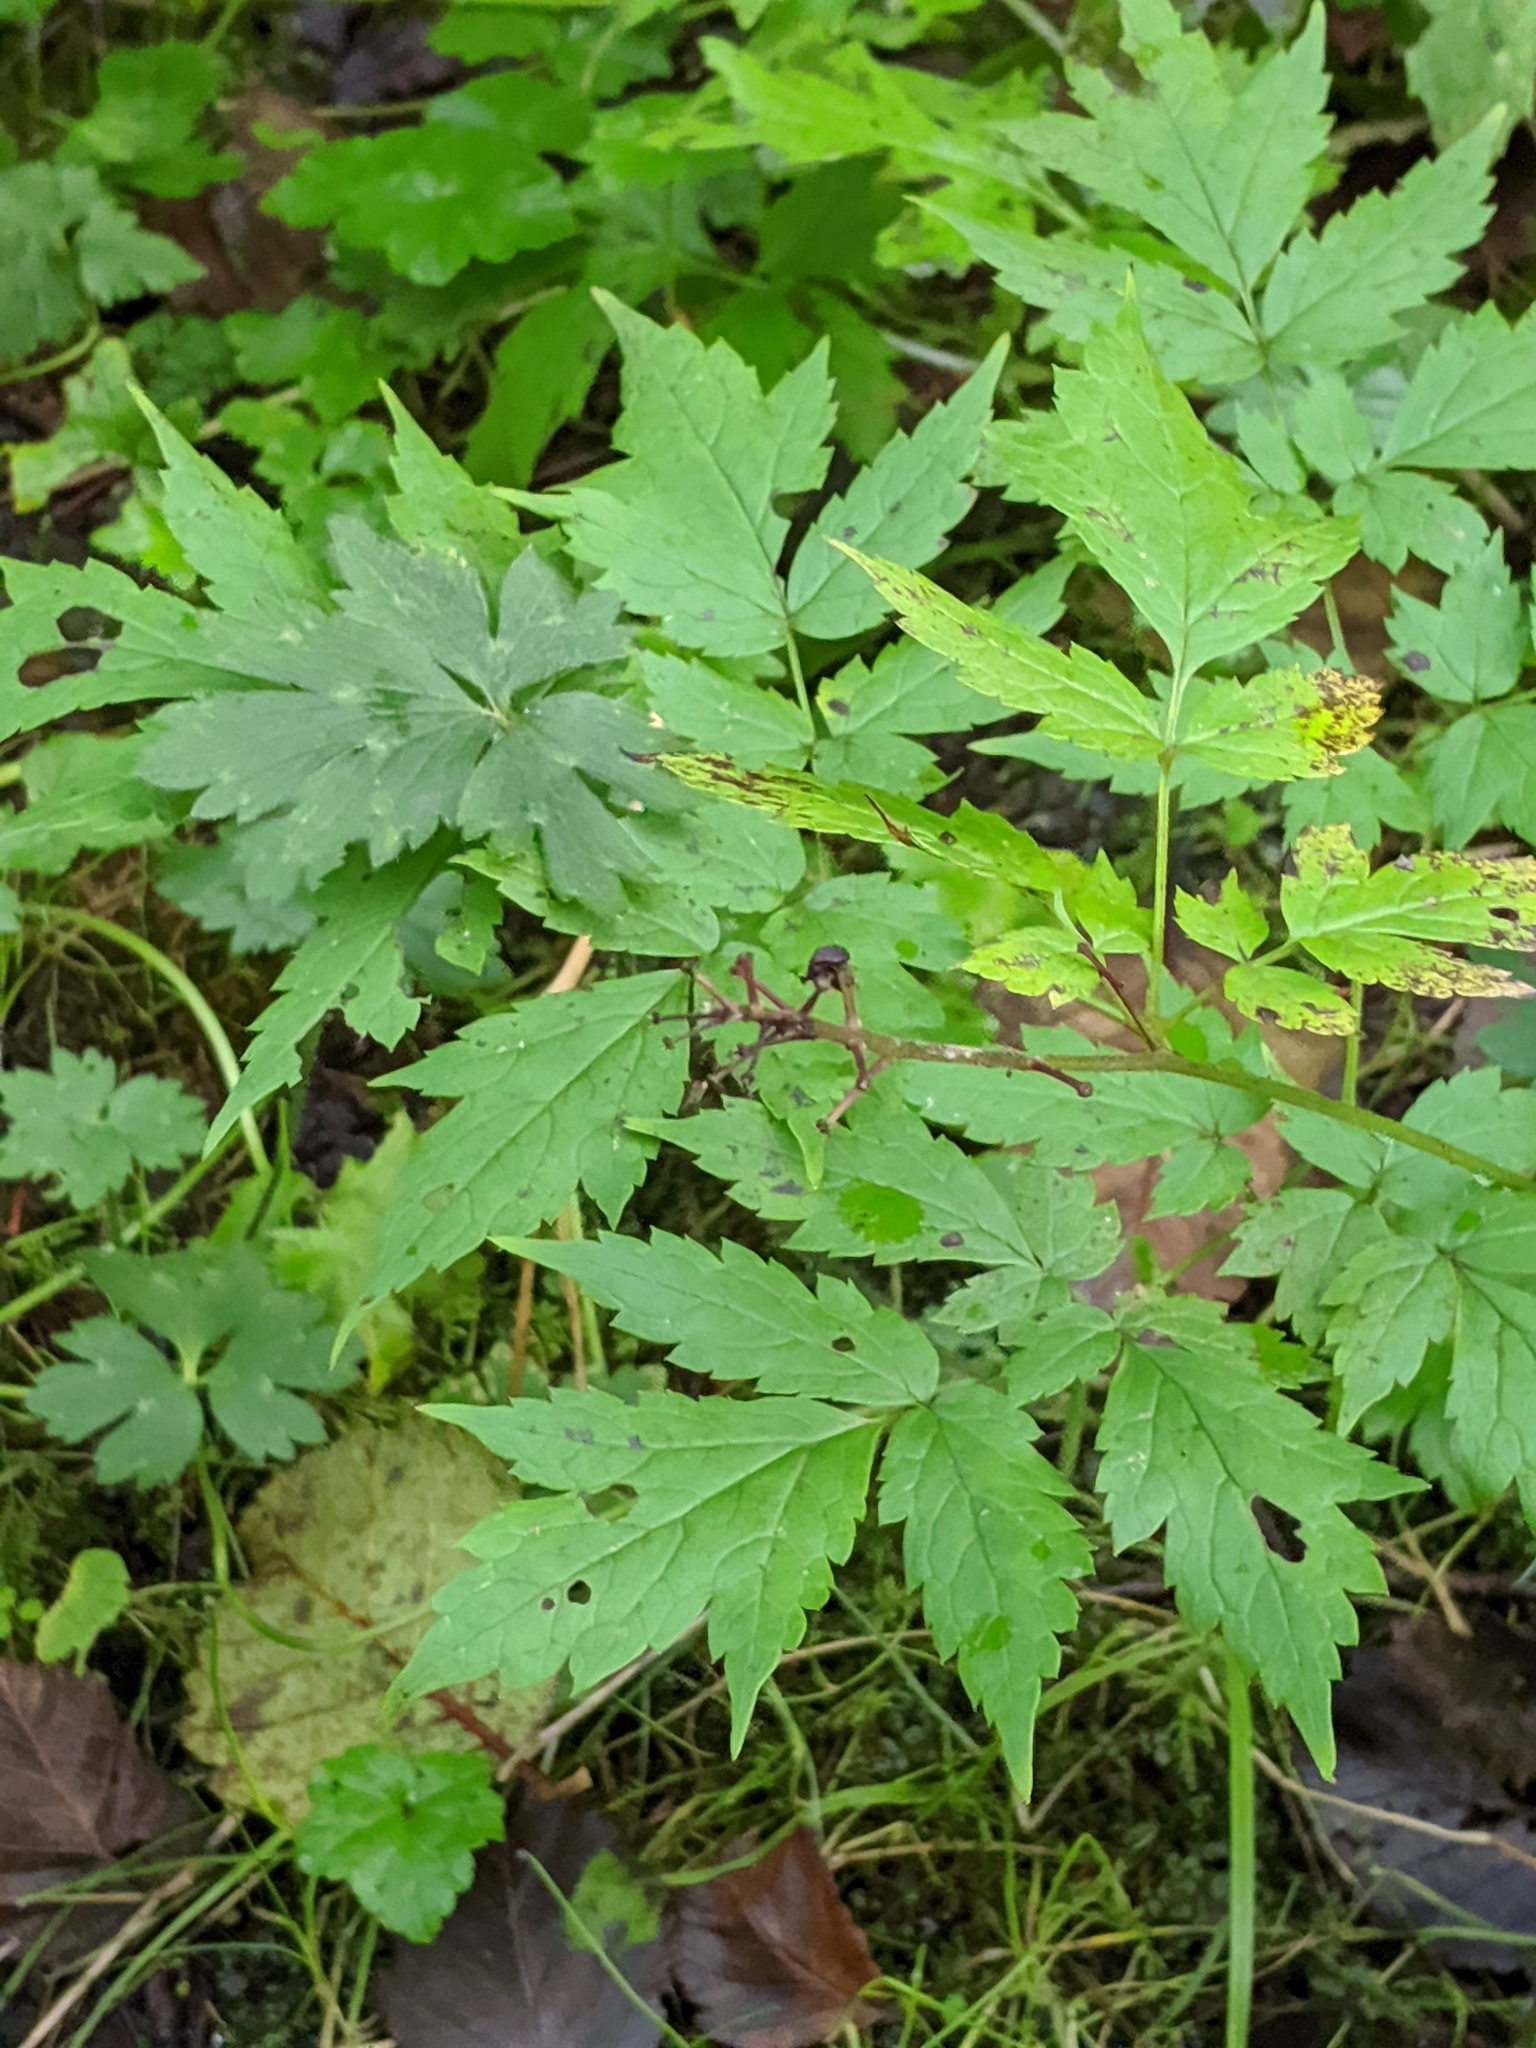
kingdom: Plantae
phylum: Tracheophyta
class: Magnoliopsida
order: Ranunculales
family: Ranunculaceae
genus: Actaea
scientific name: Actaea rubra
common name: Red baneberry
